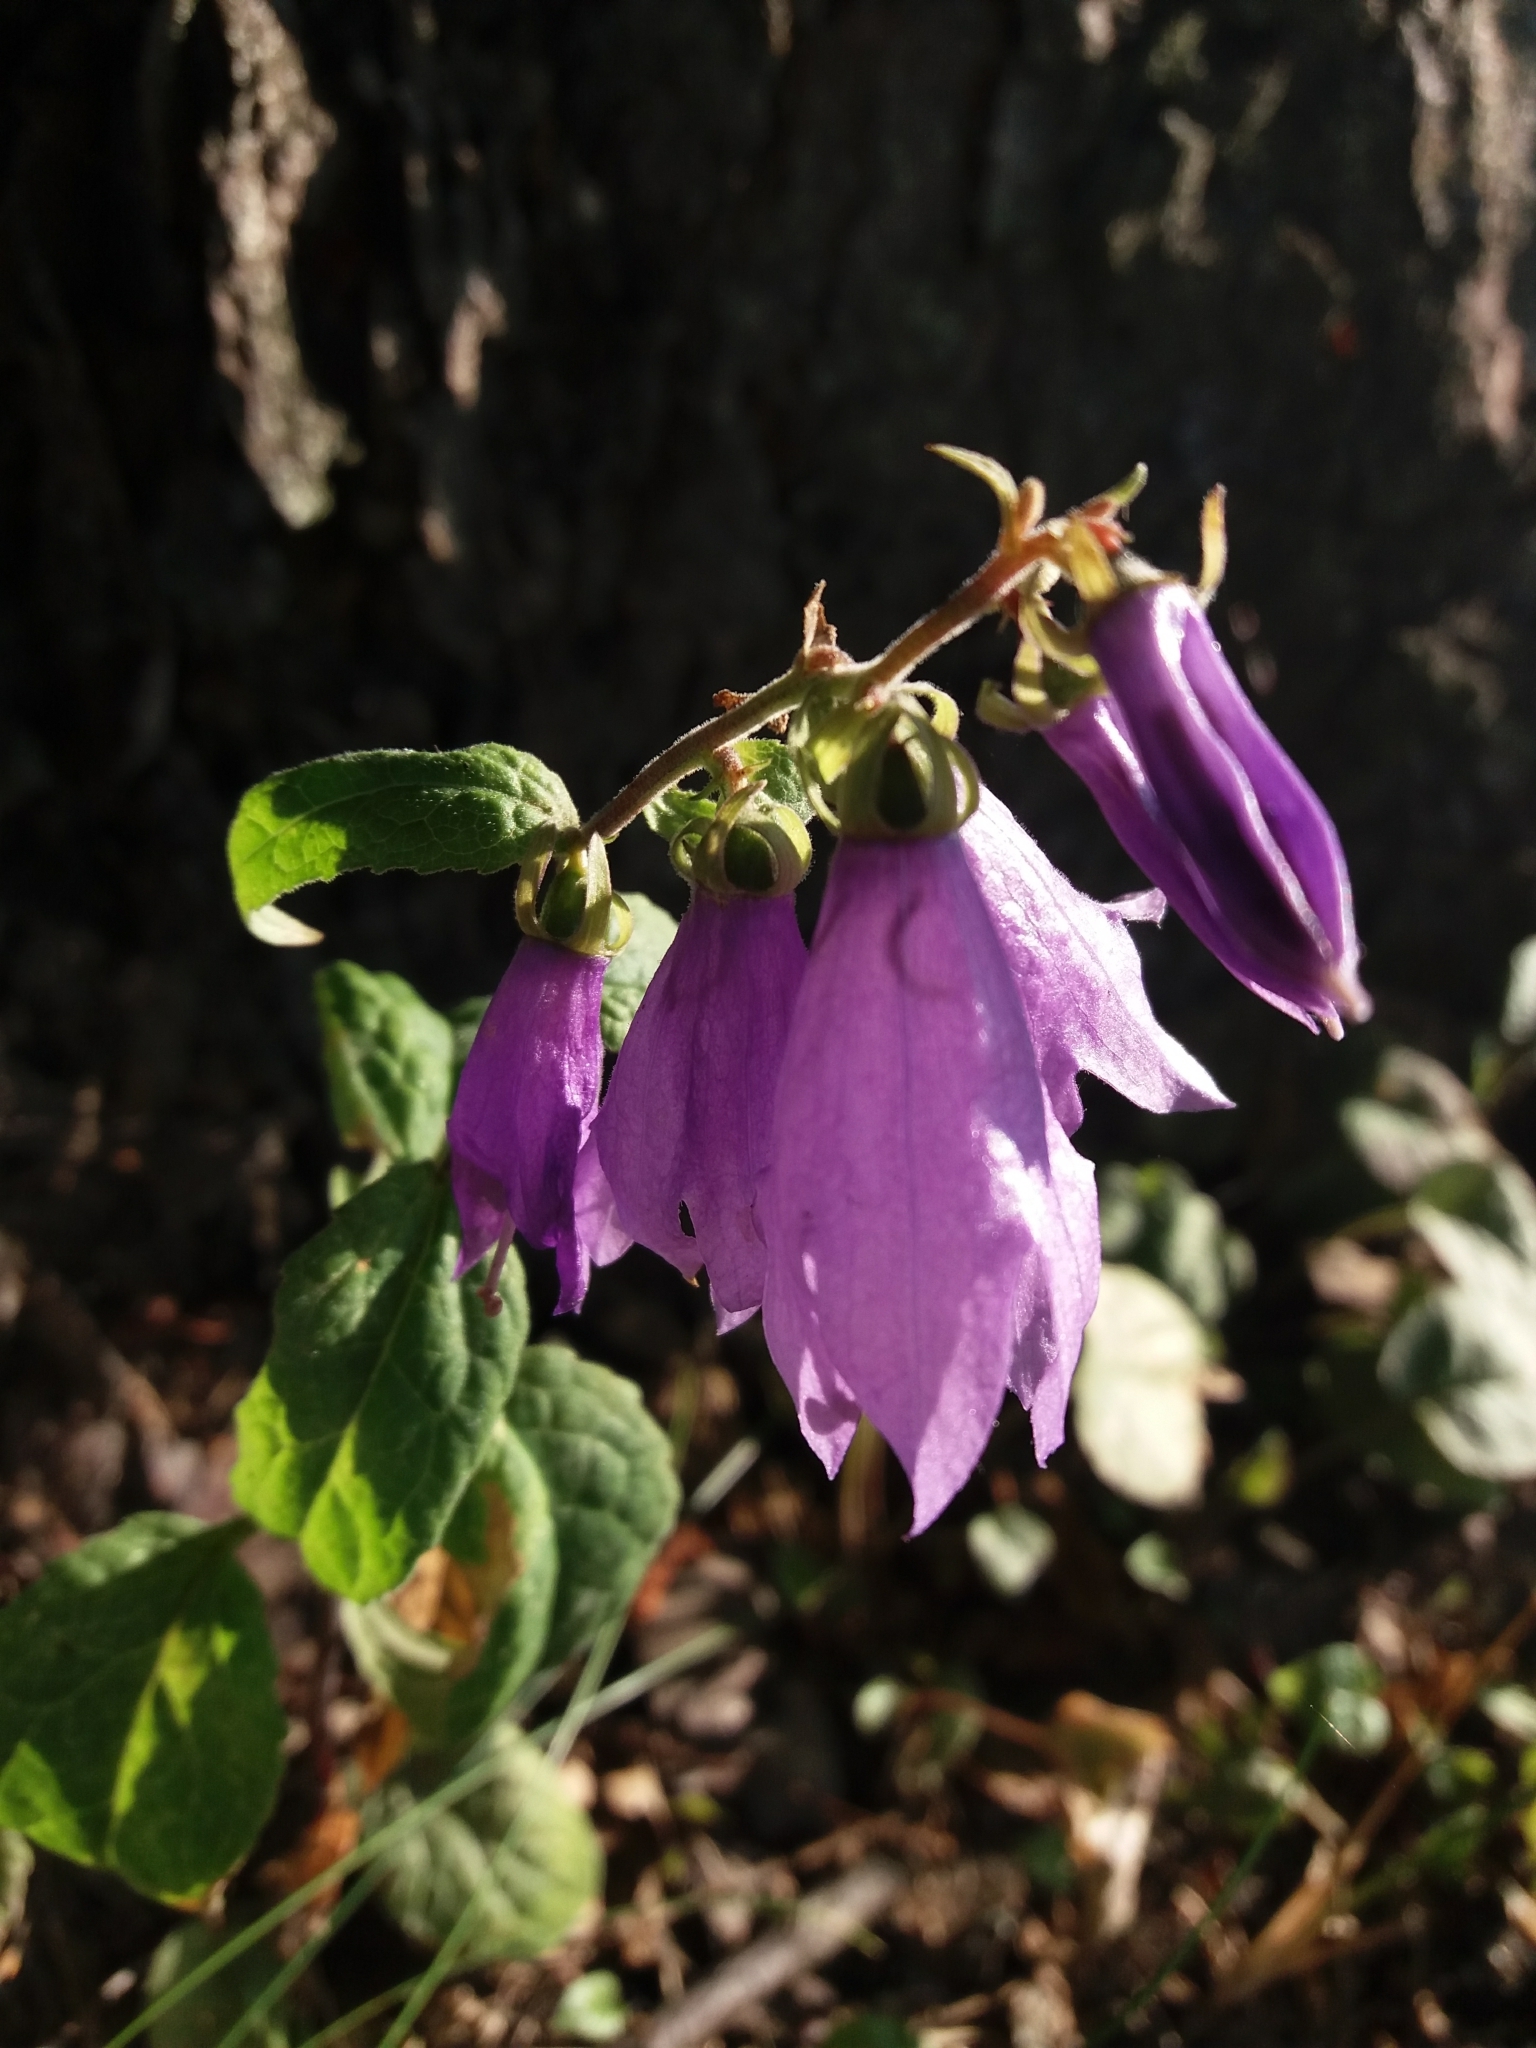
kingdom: Plantae
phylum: Tracheophyta
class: Magnoliopsida
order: Asterales
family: Campanulaceae
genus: Campanula
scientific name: Campanula rapunculoides
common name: Creeping bellflower
